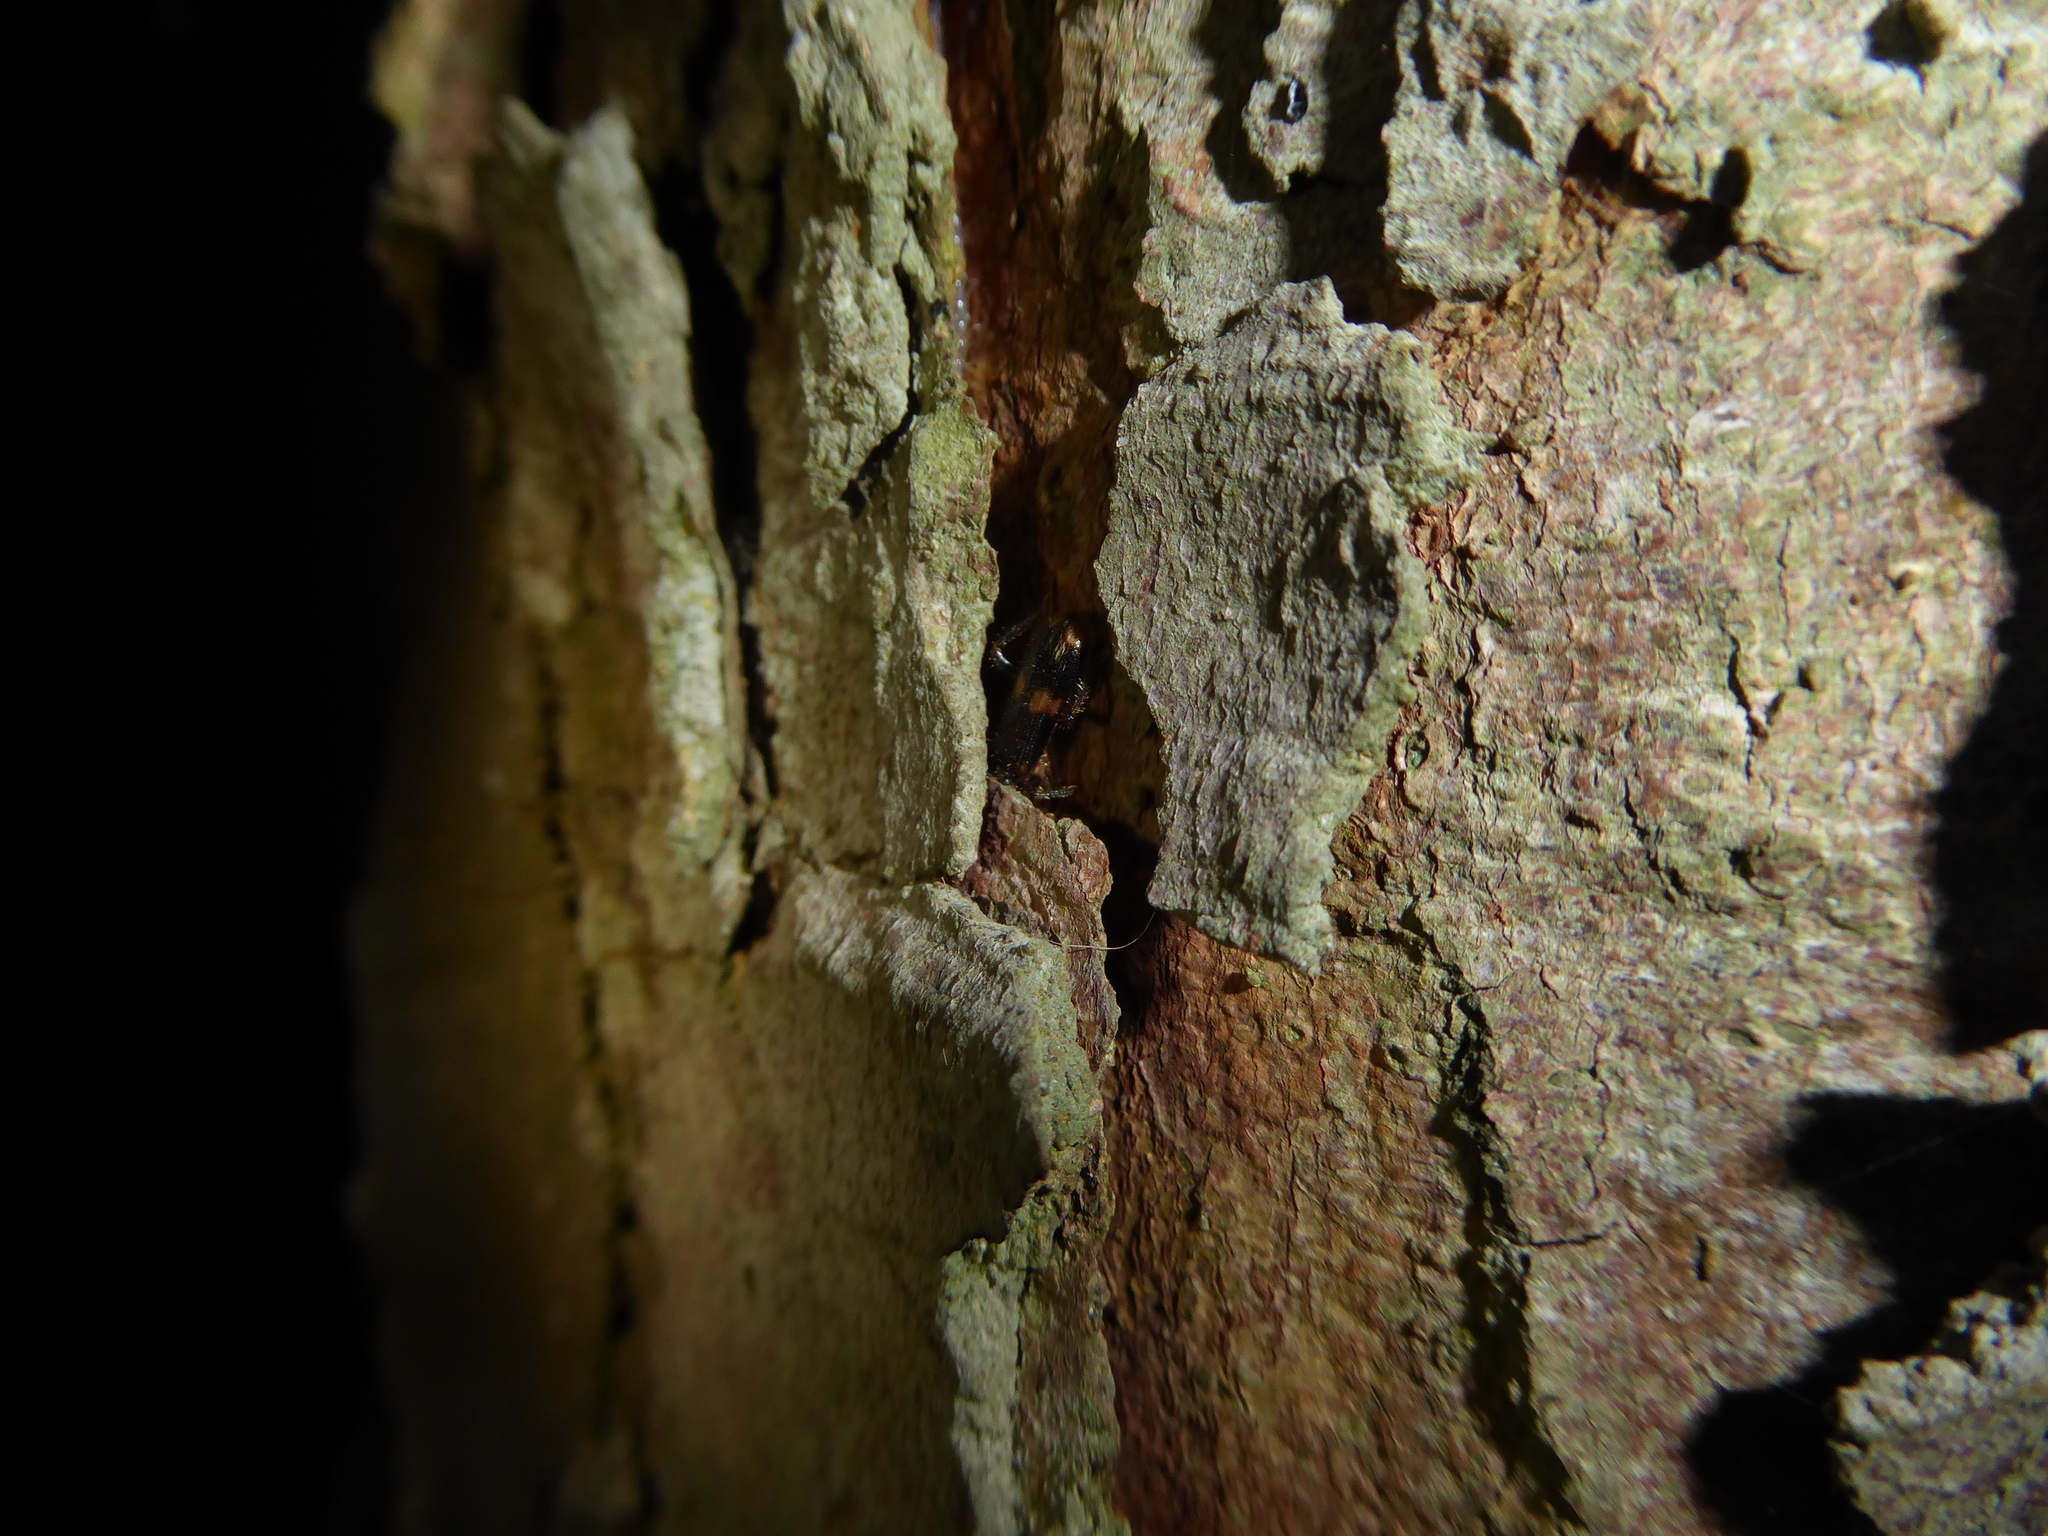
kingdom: Animalia
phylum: Arthropoda
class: Insecta
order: Coleoptera
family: Cleridae
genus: Opilo
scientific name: Opilo mollis
